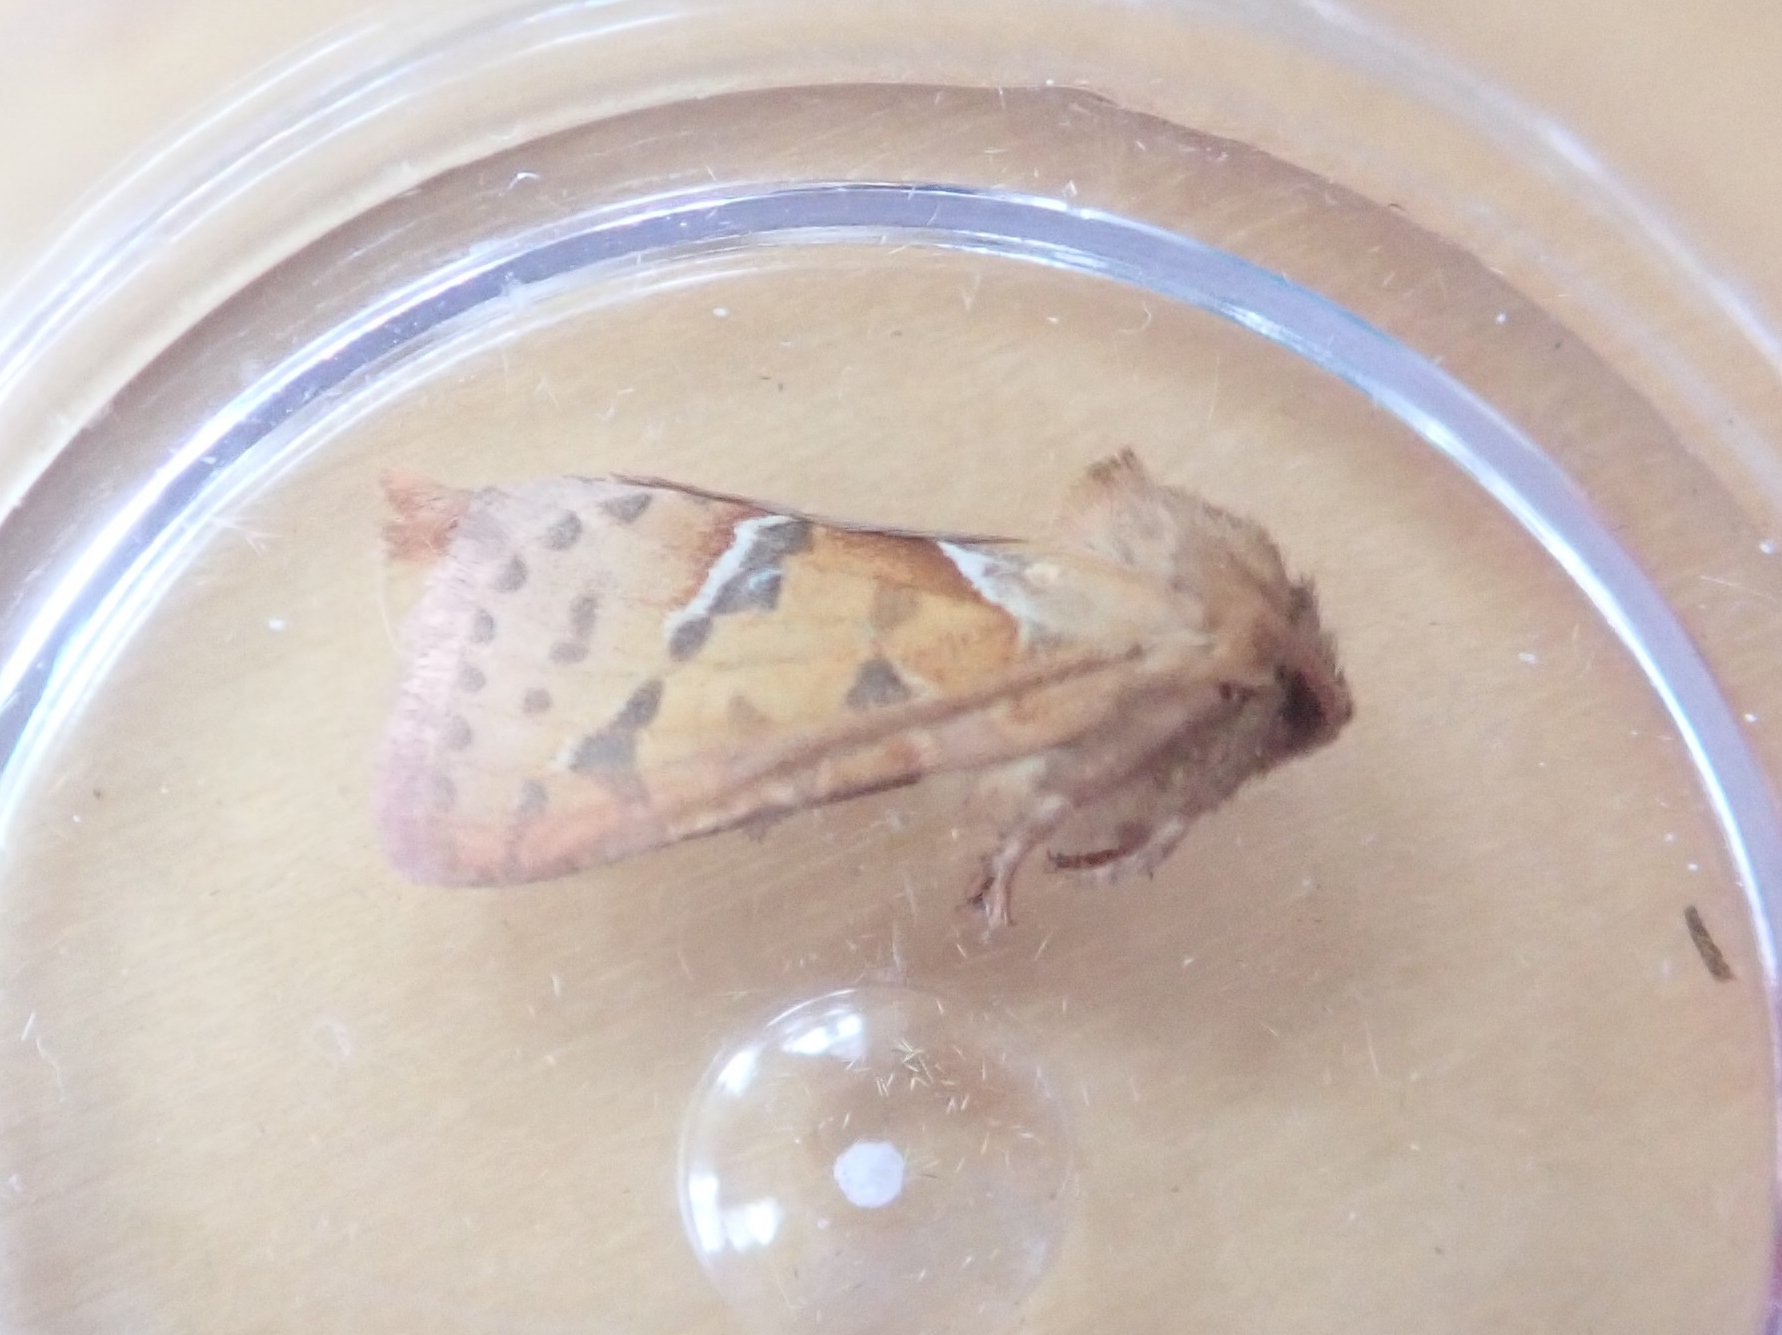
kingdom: Animalia
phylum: Arthropoda
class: Insecta
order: Lepidoptera
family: Hepialidae
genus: Triodia
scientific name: Triodia sylvina
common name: Orange swift
